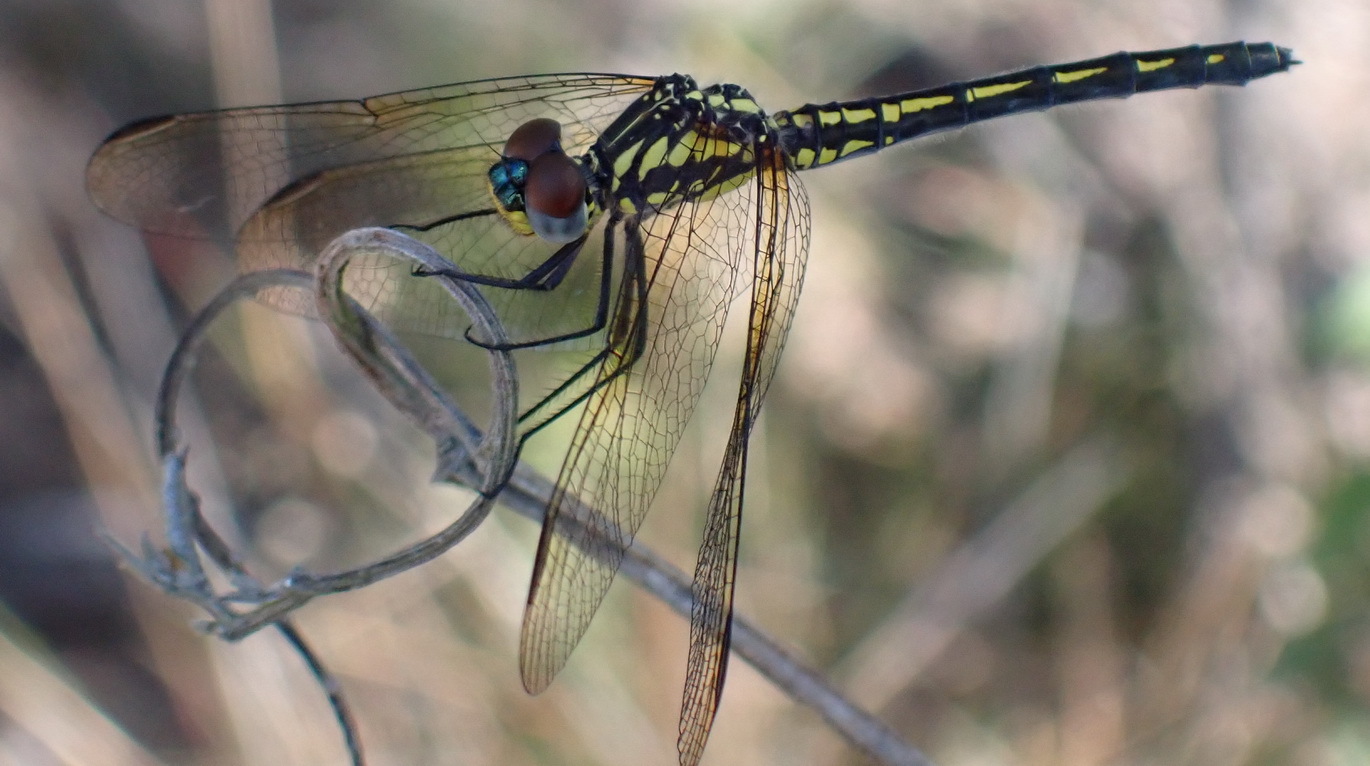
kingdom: Animalia
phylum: Arthropoda
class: Insecta
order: Odonata
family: Libellulidae
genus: Trithemis
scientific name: Trithemis stictica
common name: Jaunty dropwing
